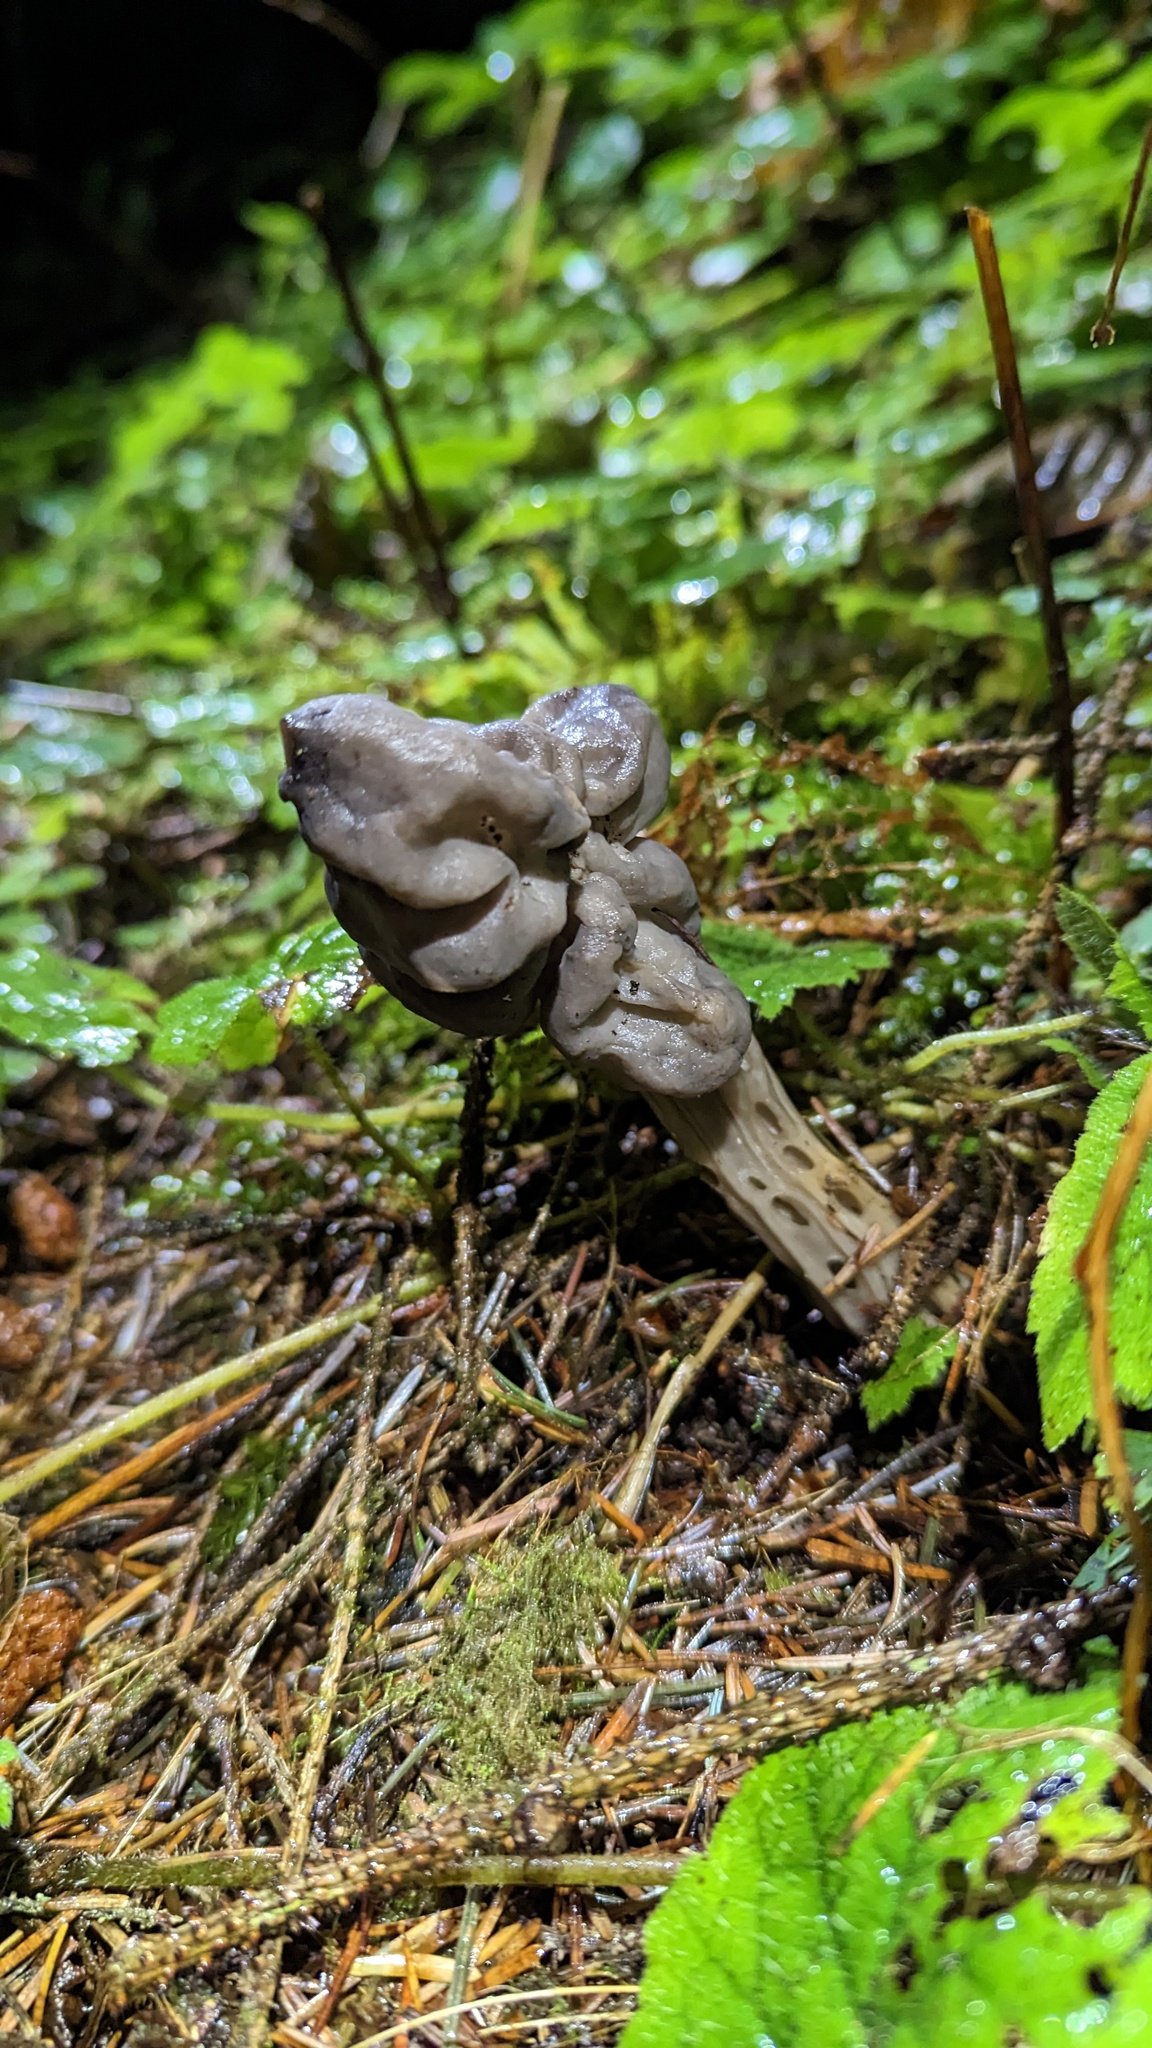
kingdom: Fungi
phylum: Ascomycota
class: Pezizomycetes
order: Pezizales
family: Helvellaceae
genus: Helvella
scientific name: Helvella vespertina
